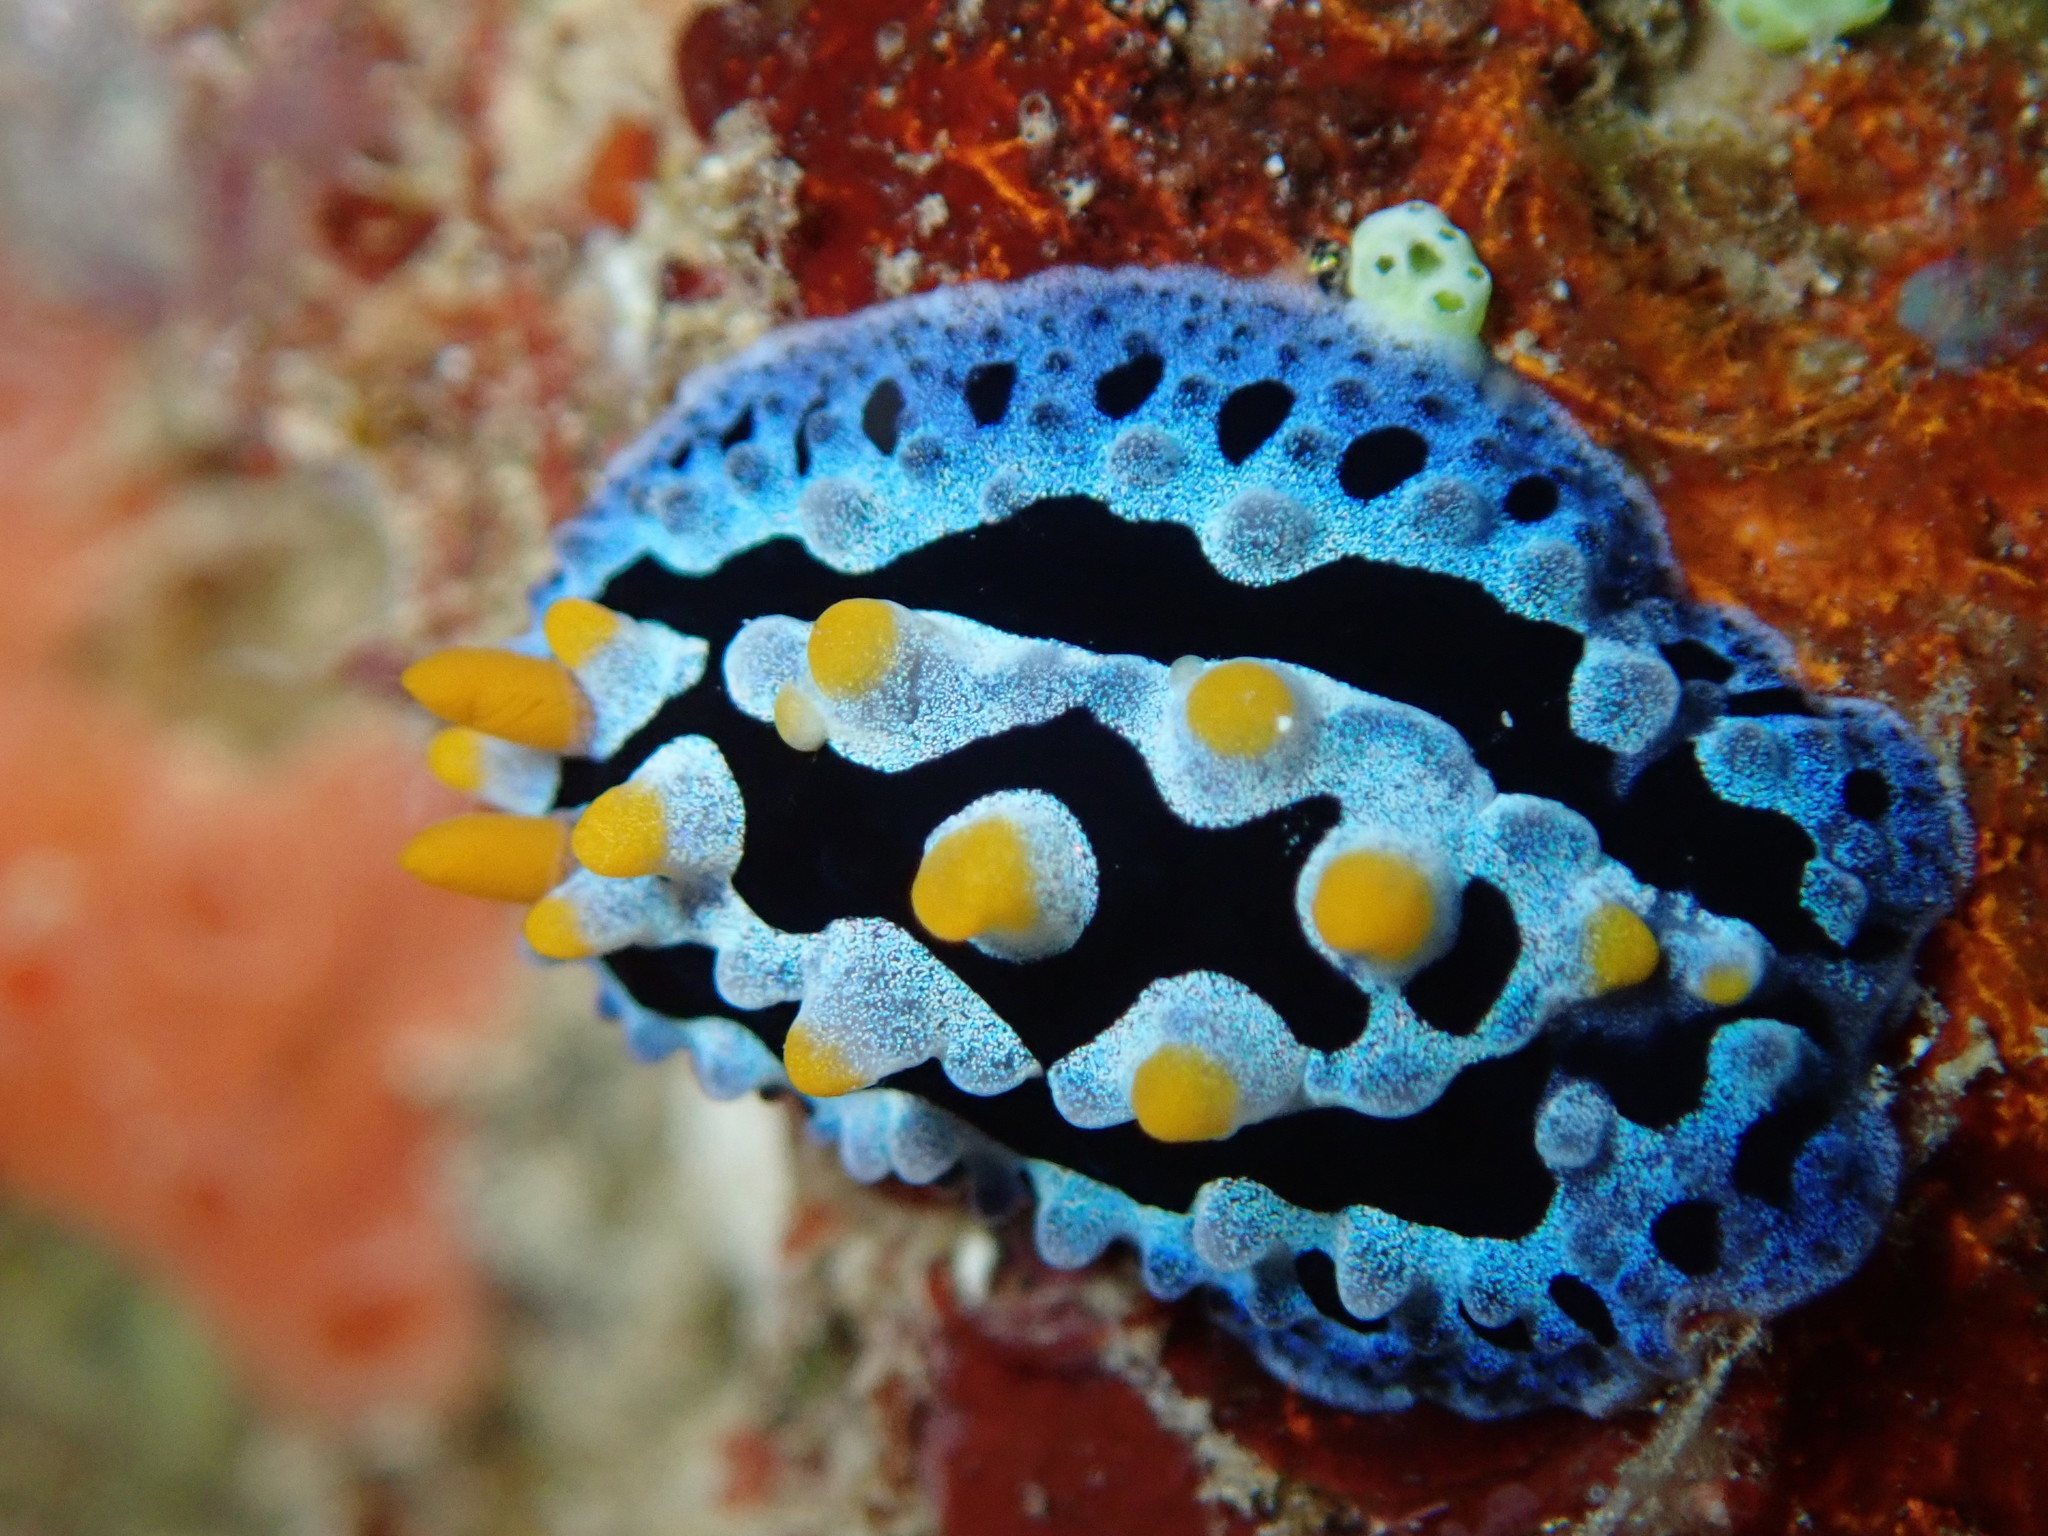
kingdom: Animalia
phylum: Mollusca
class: Gastropoda
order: Nudibranchia
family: Phyllidiidae
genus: Phyllidia
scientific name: Phyllidia coelestis
